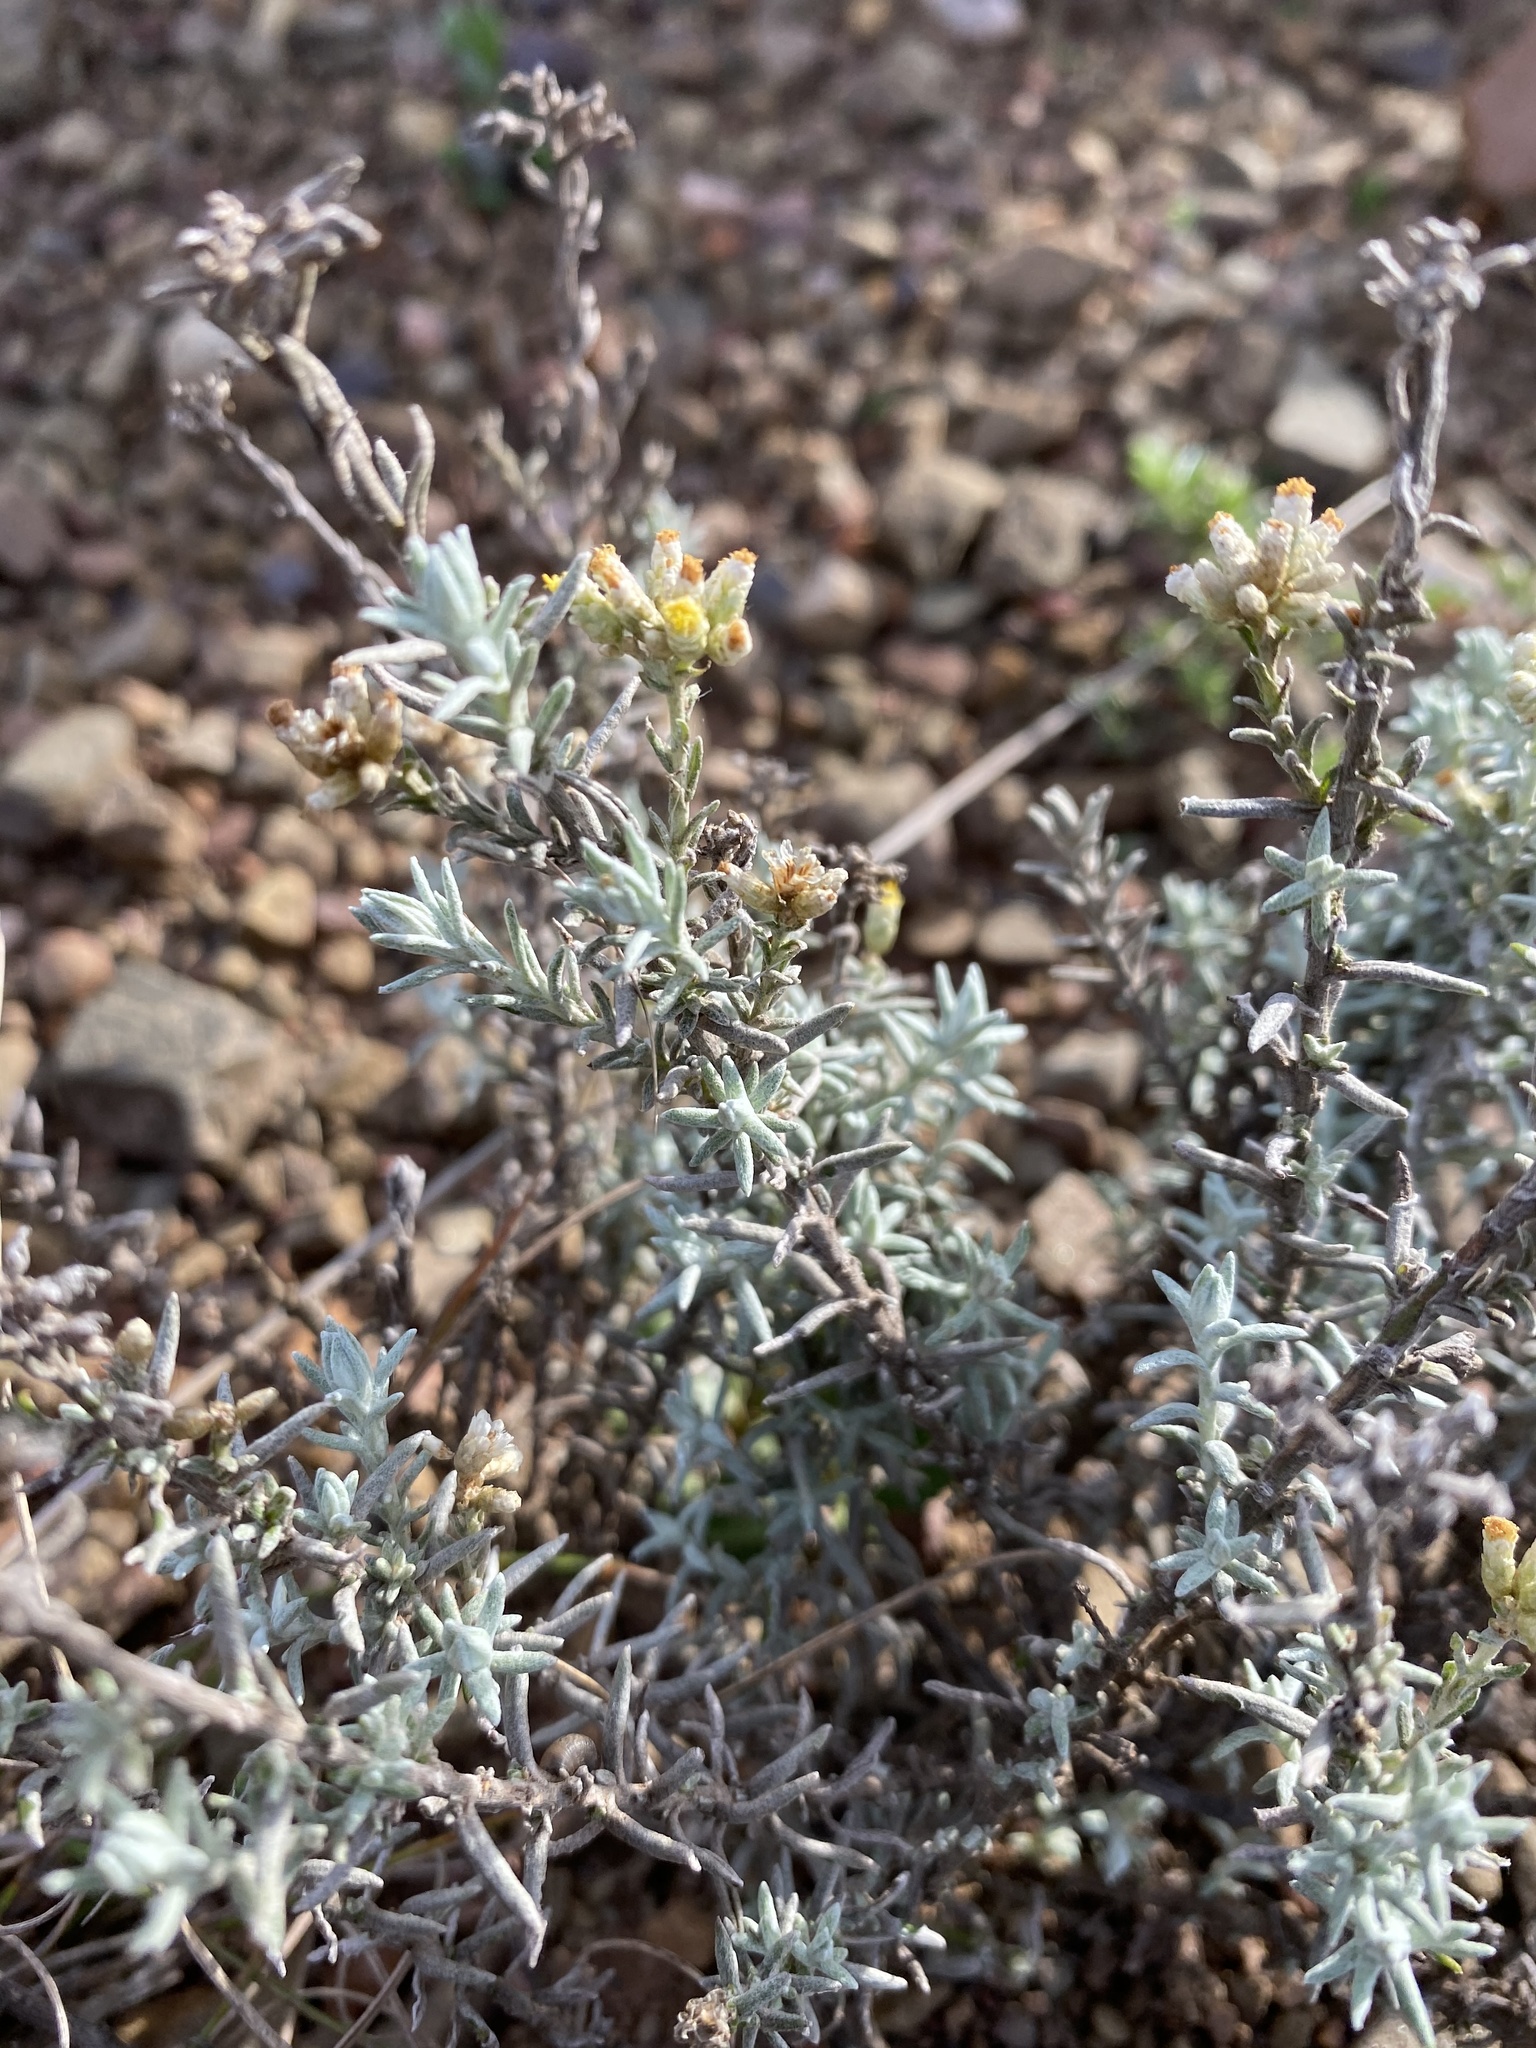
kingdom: Plantae
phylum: Tracheophyta
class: Magnoliopsida
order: Asterales
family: Asteraceae
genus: Helichrysum
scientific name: Helichrysum rosum
